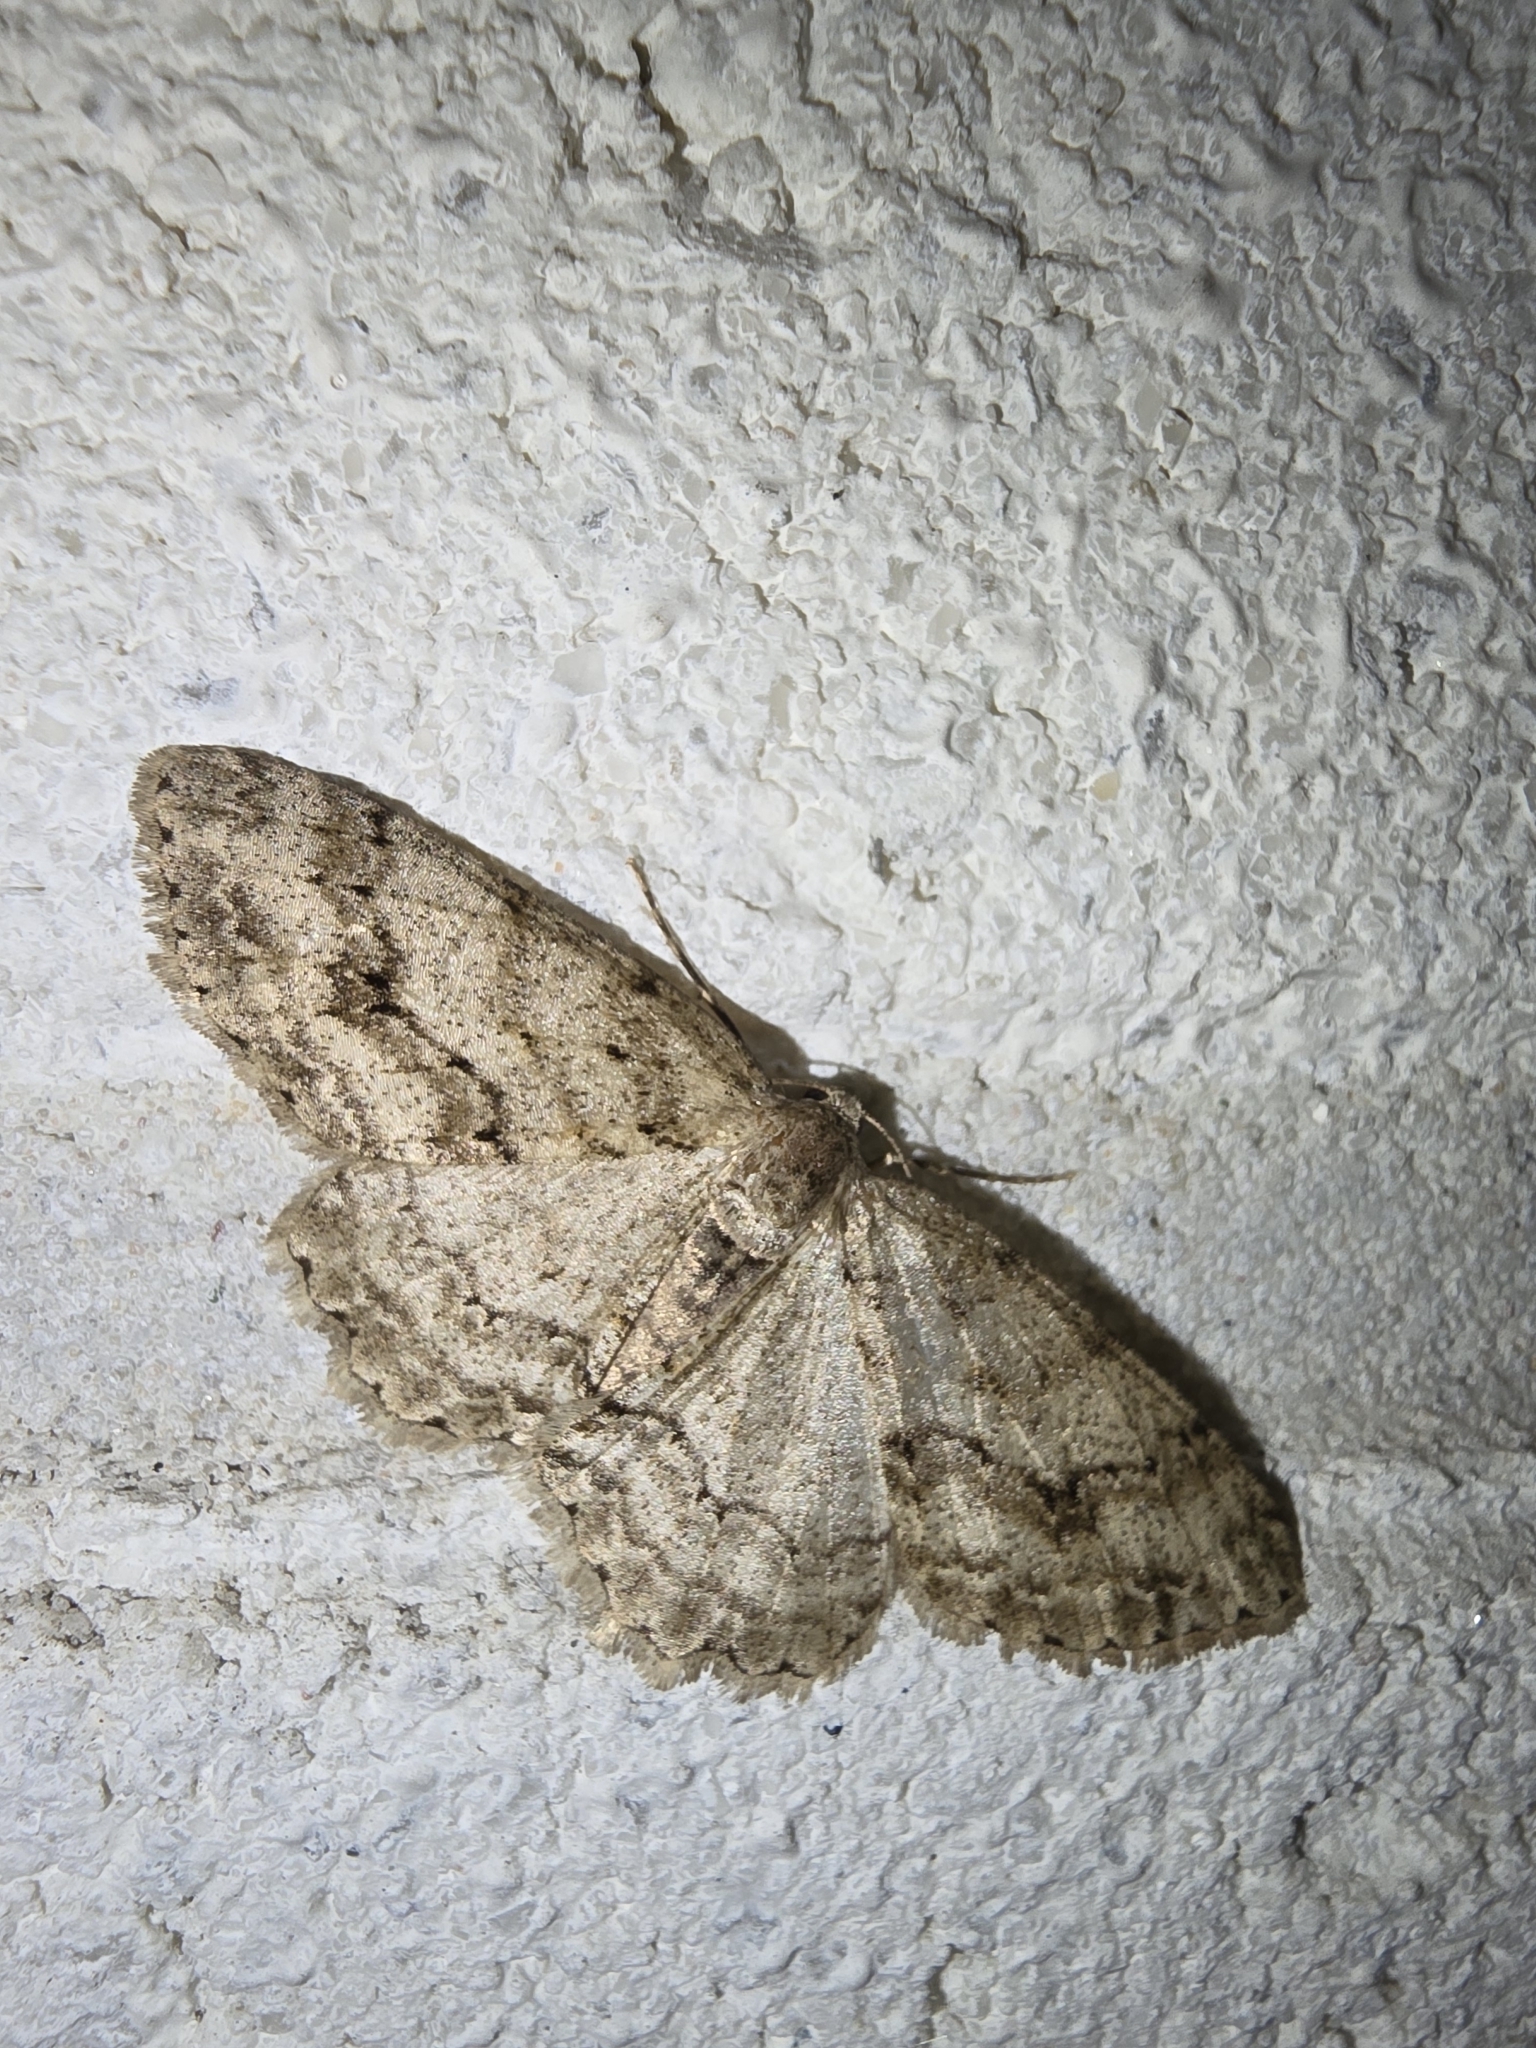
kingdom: Animalia
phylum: Arthropoda
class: Insecta
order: Lepidoptera
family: Geometridae
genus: Ectropis
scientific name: Ectropis crepuscularia
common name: Engrailed
